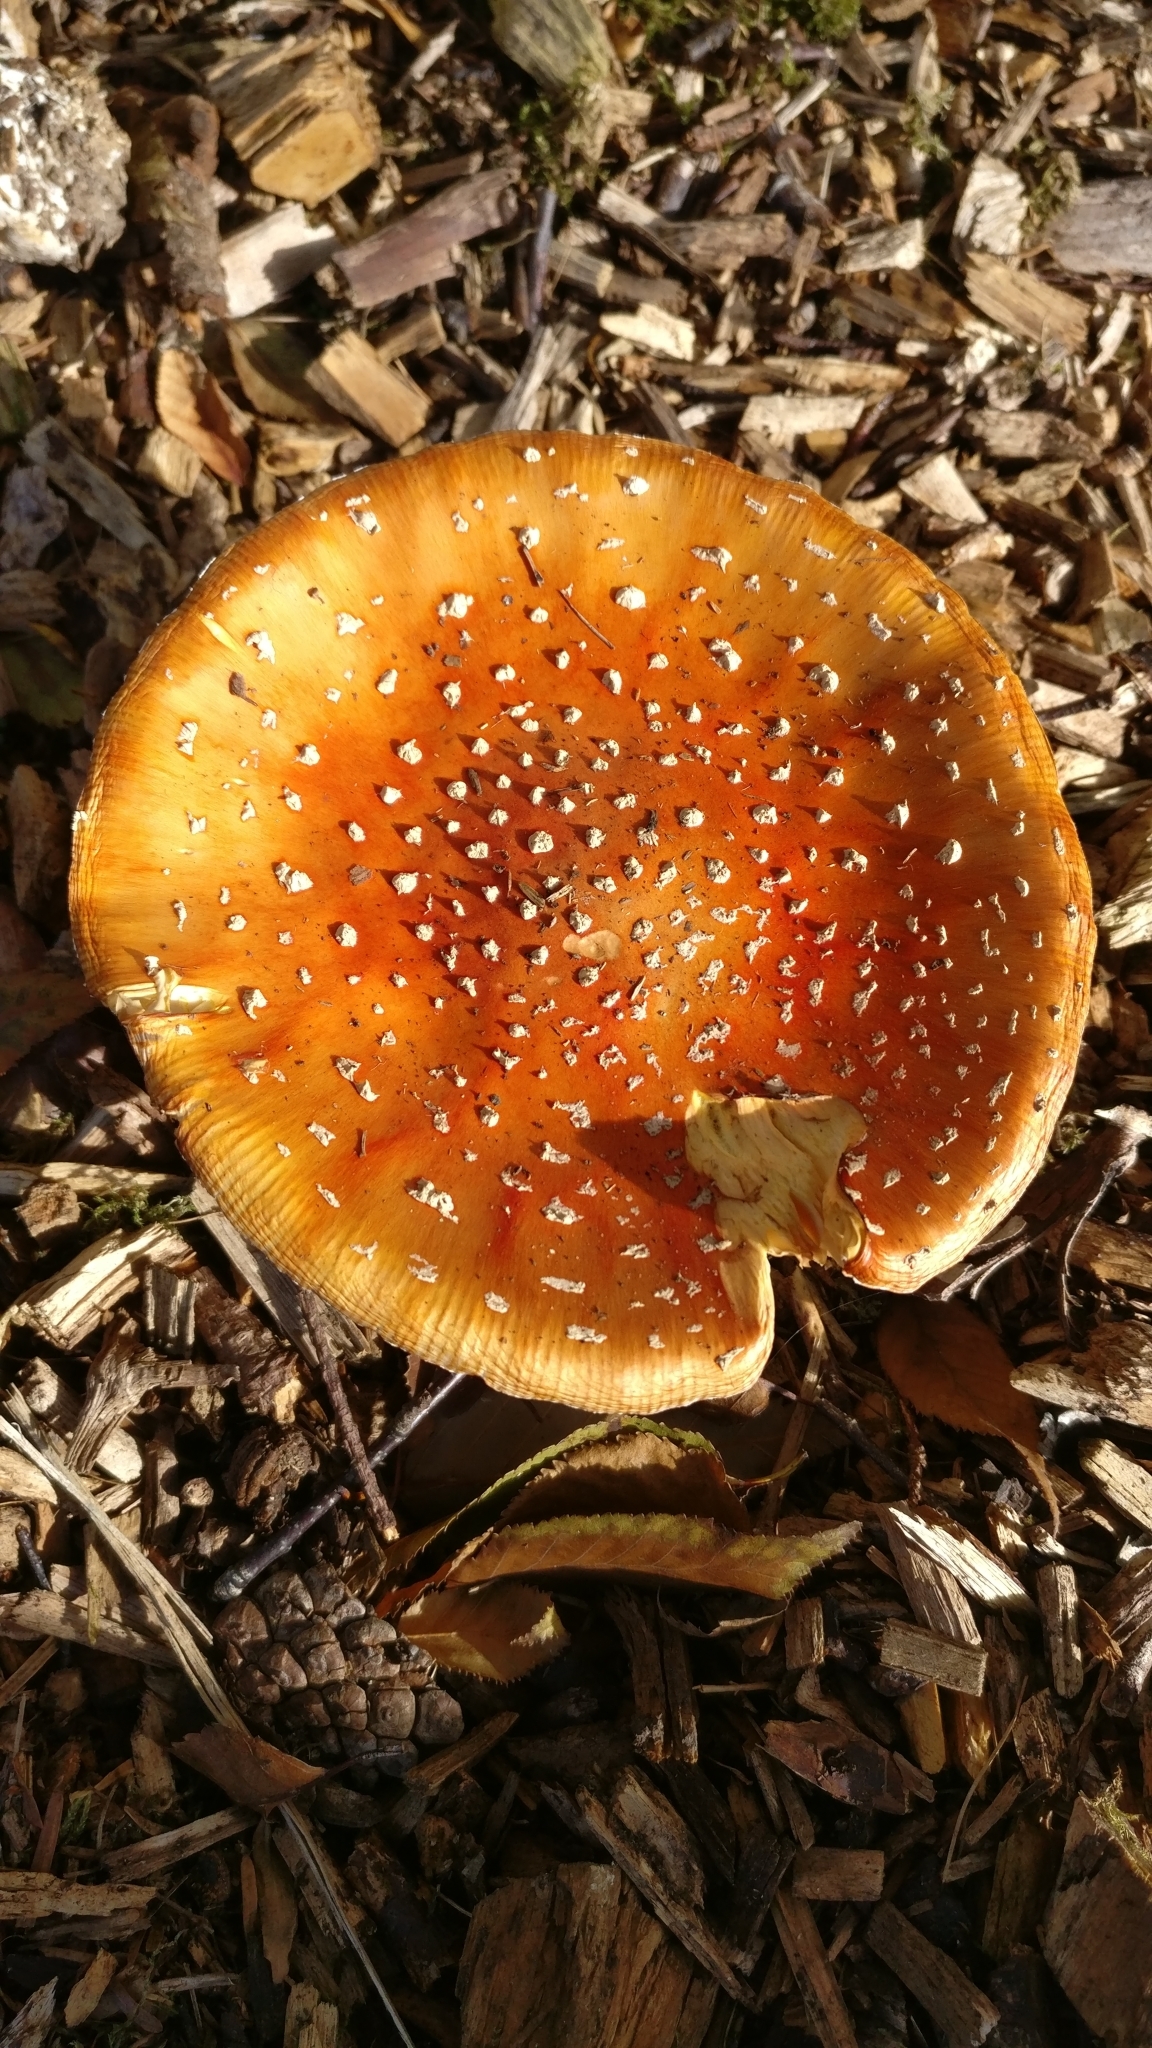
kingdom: Fungi
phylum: Basidiomycota
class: Agaricomycetes
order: Agaricales
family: Amanitaceae
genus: Amanita
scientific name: Amanita muscaria
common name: Fly agaric
